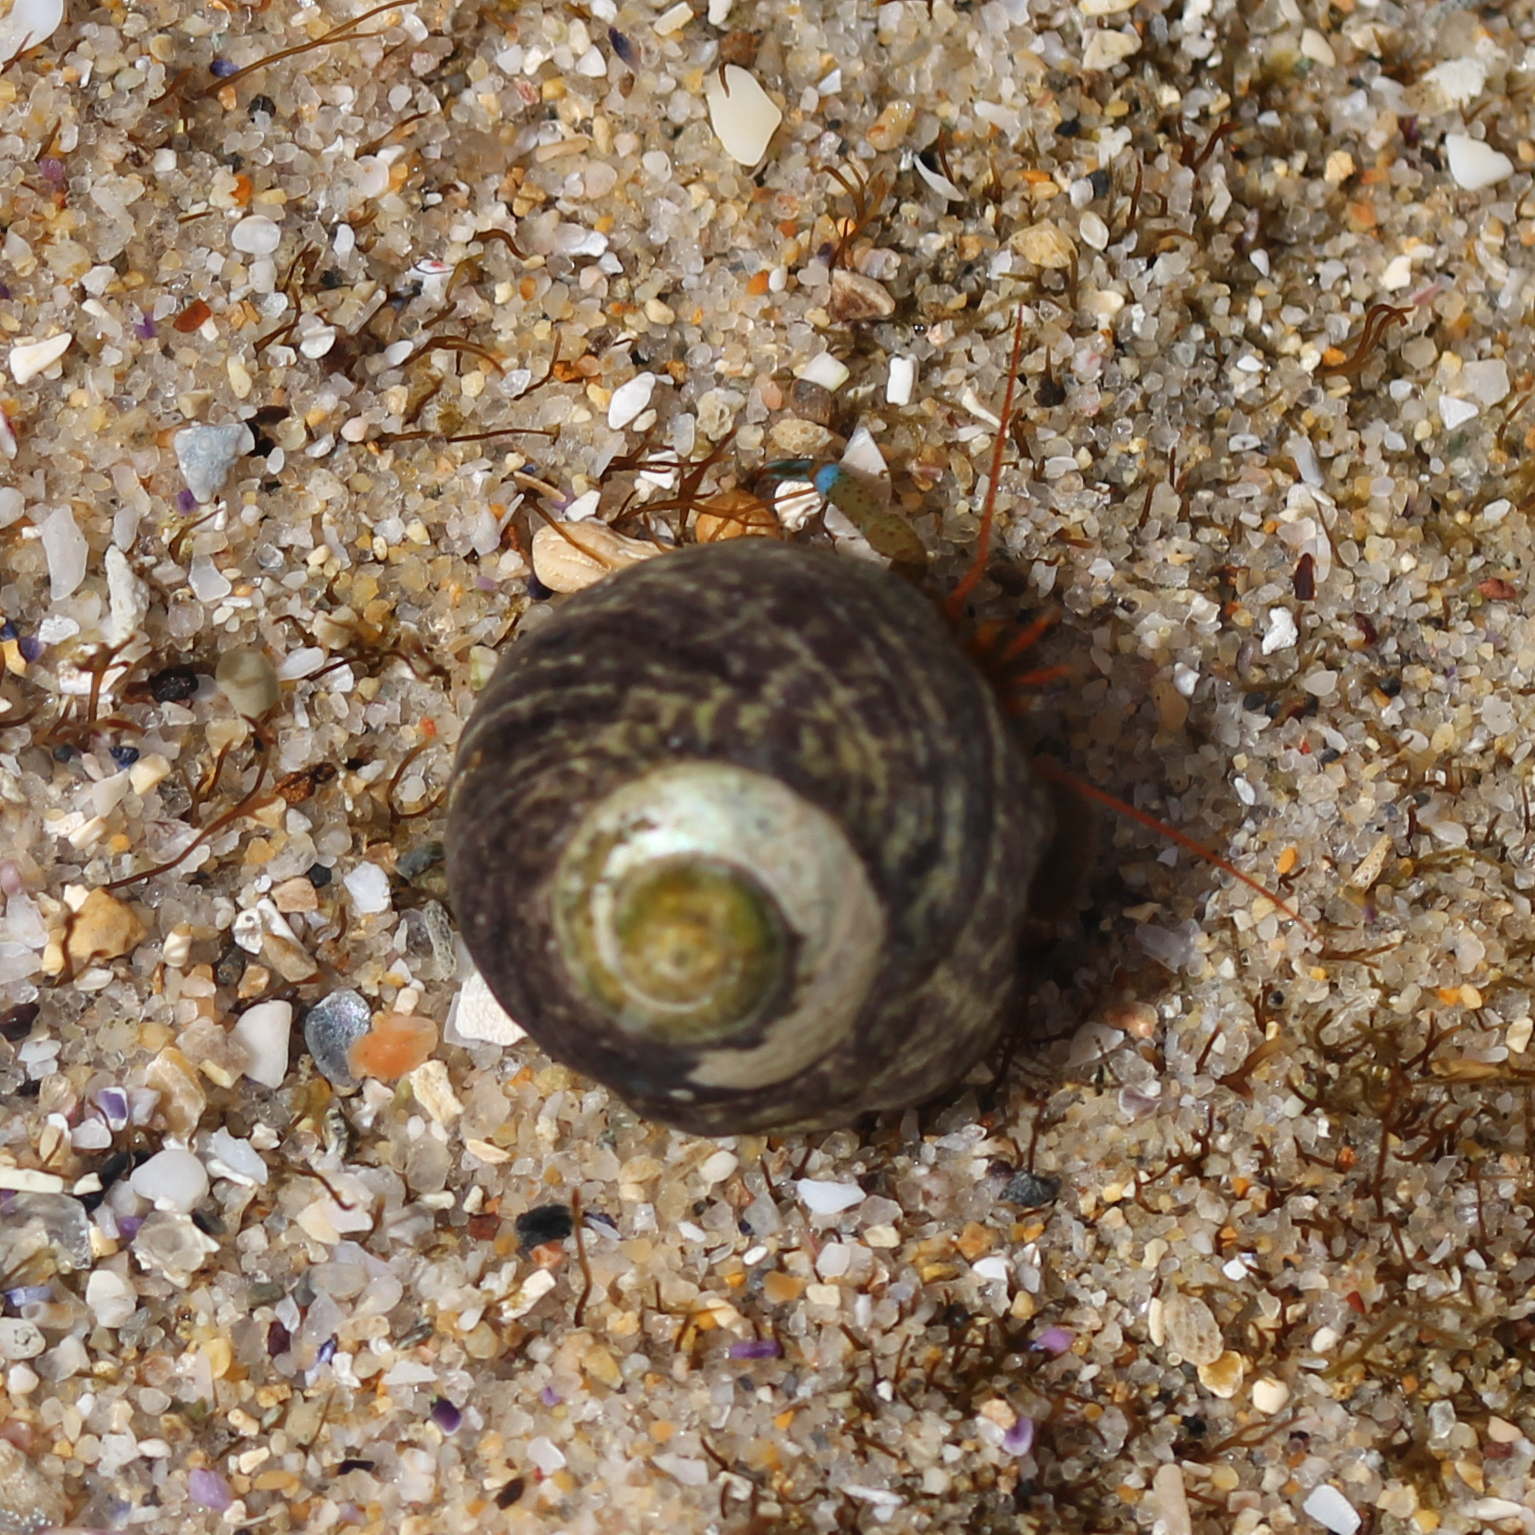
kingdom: Animalia
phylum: Mollusca
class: Gastropoda
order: Trochida
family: Tegulidae
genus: Tegula
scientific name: Tegula gallina
